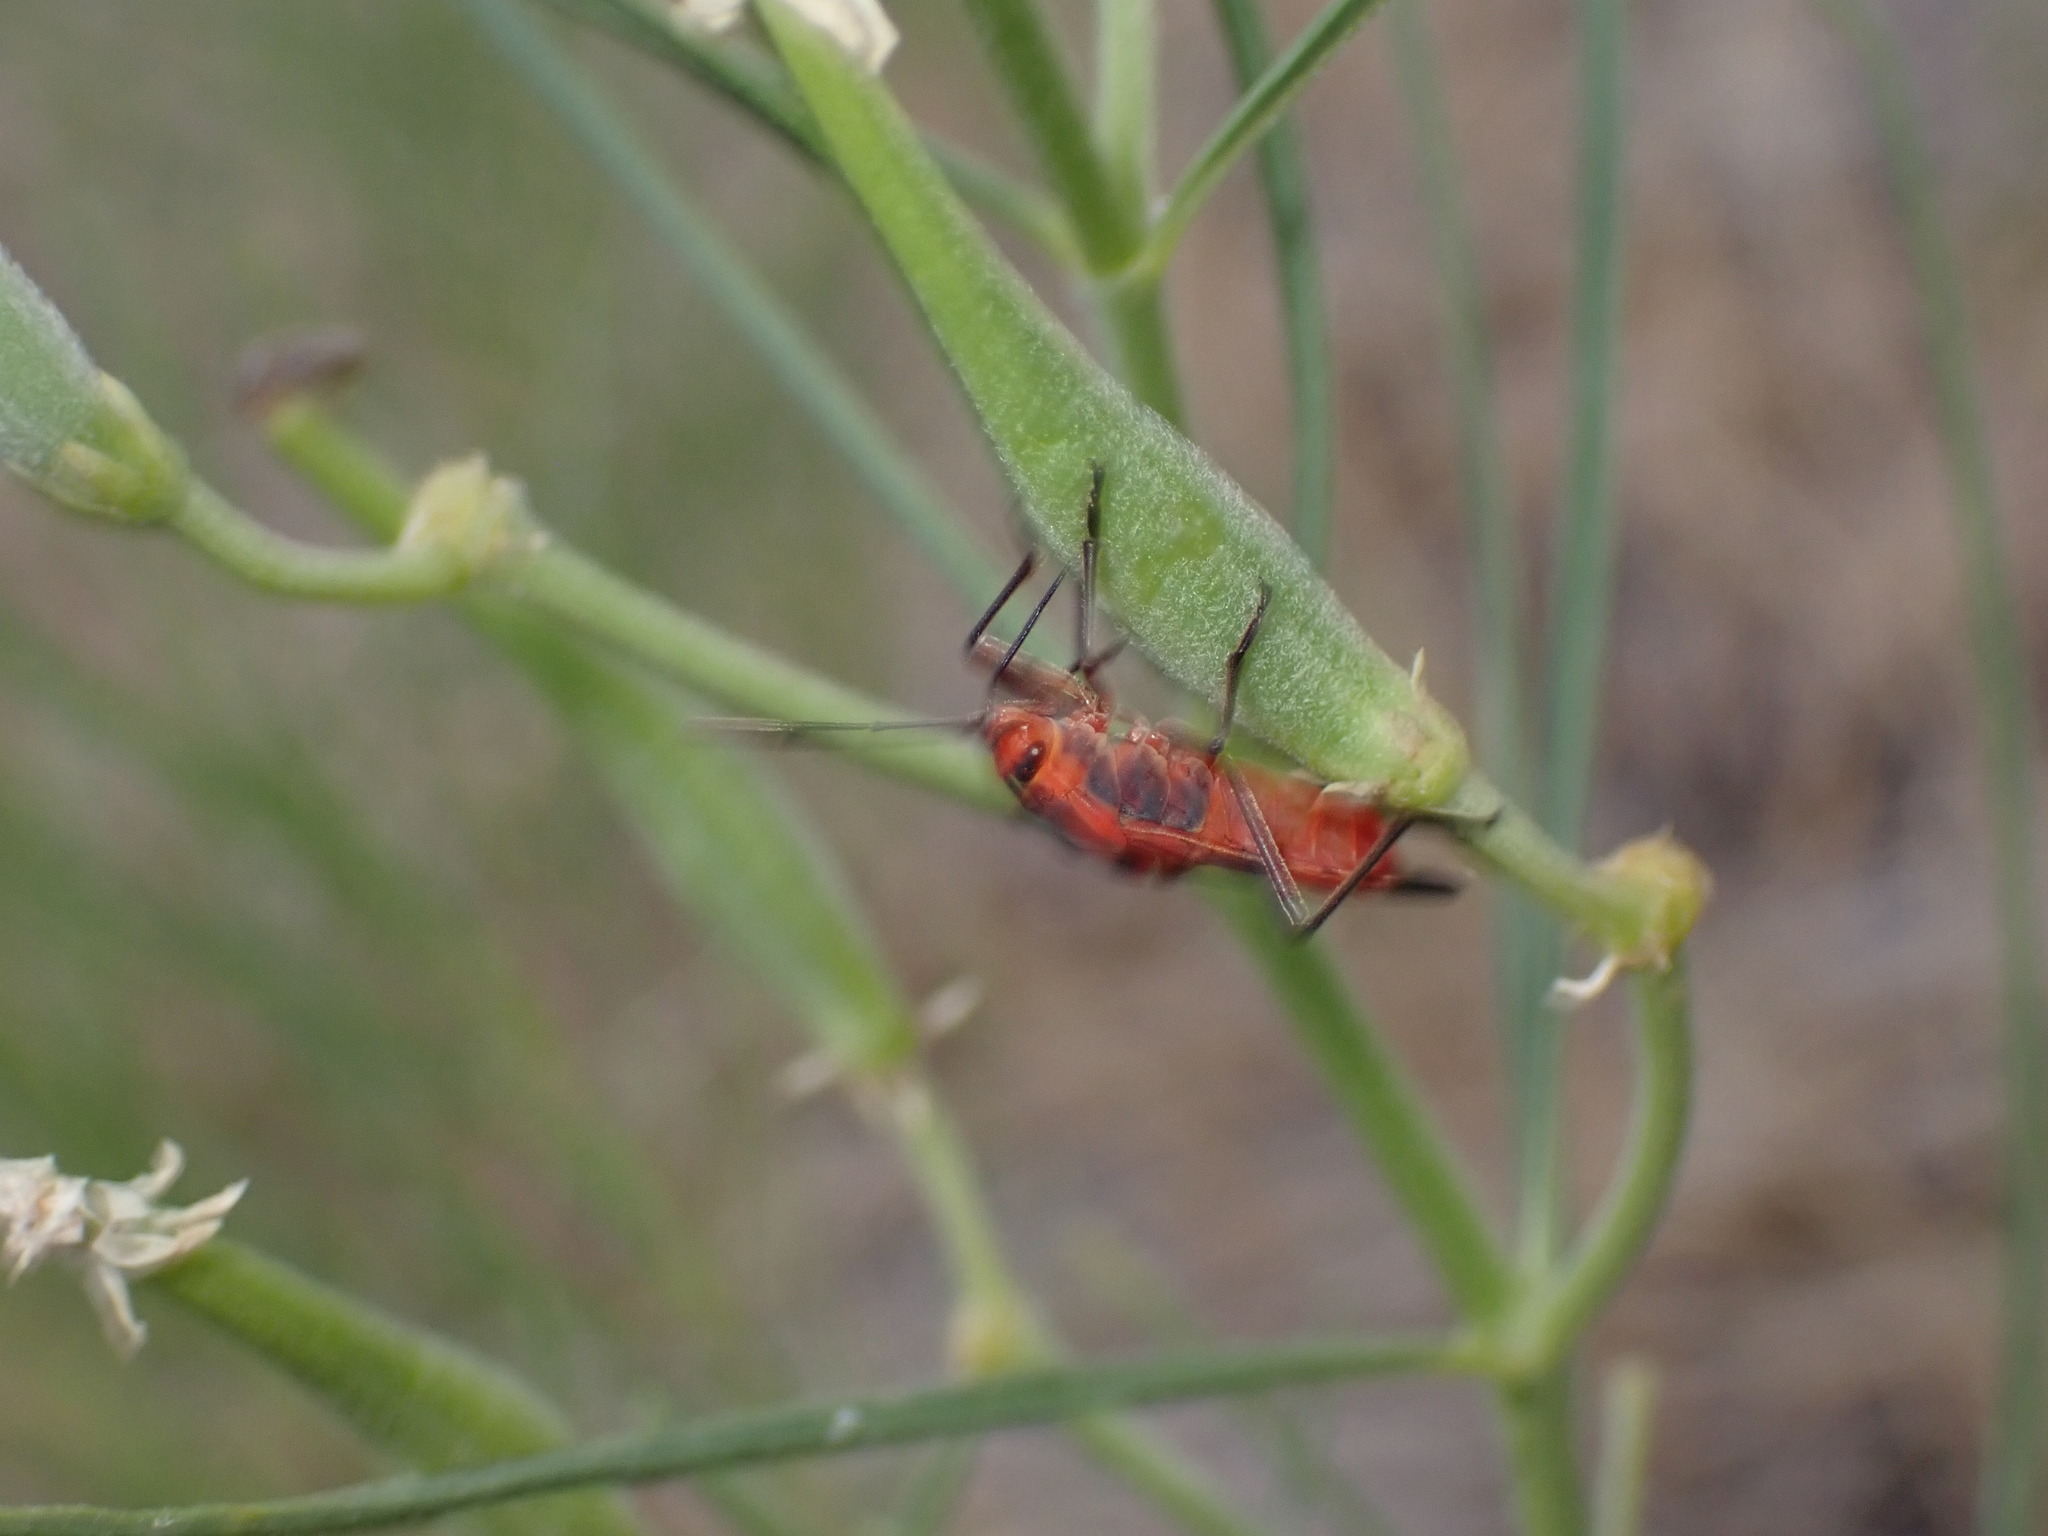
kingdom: Animalia
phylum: Arthropoda
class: Insecta
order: Hemiptera
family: Lygaeidae
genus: Oncopeltus
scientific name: Oncopeltus fasciatus
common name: Large milkweed bug
